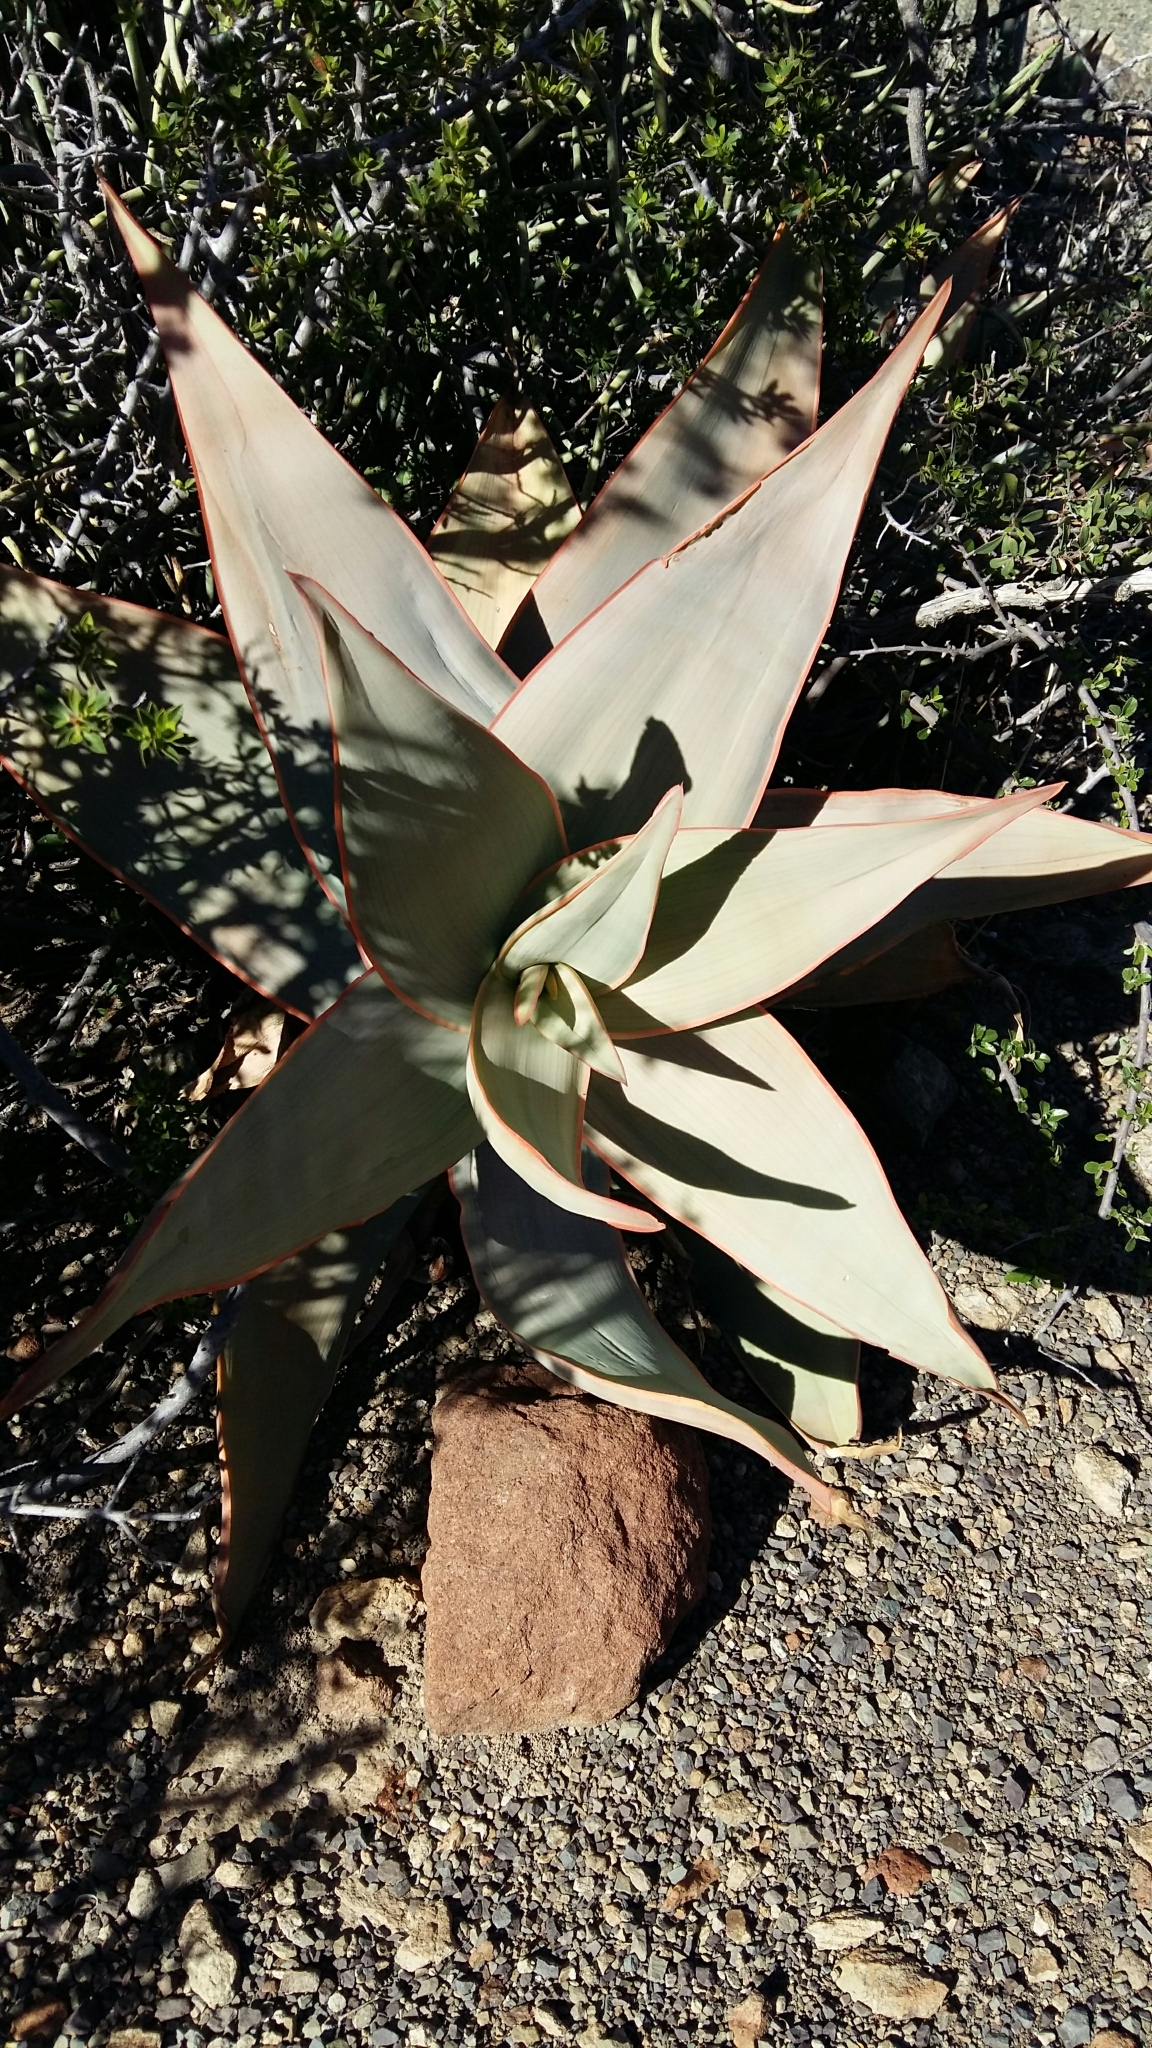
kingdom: Plantae
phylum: Tracheophyta
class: Liliopsida
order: Asparagales
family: Asphodelaceae
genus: Aloe
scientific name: Aloe striata
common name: Coral aloe
